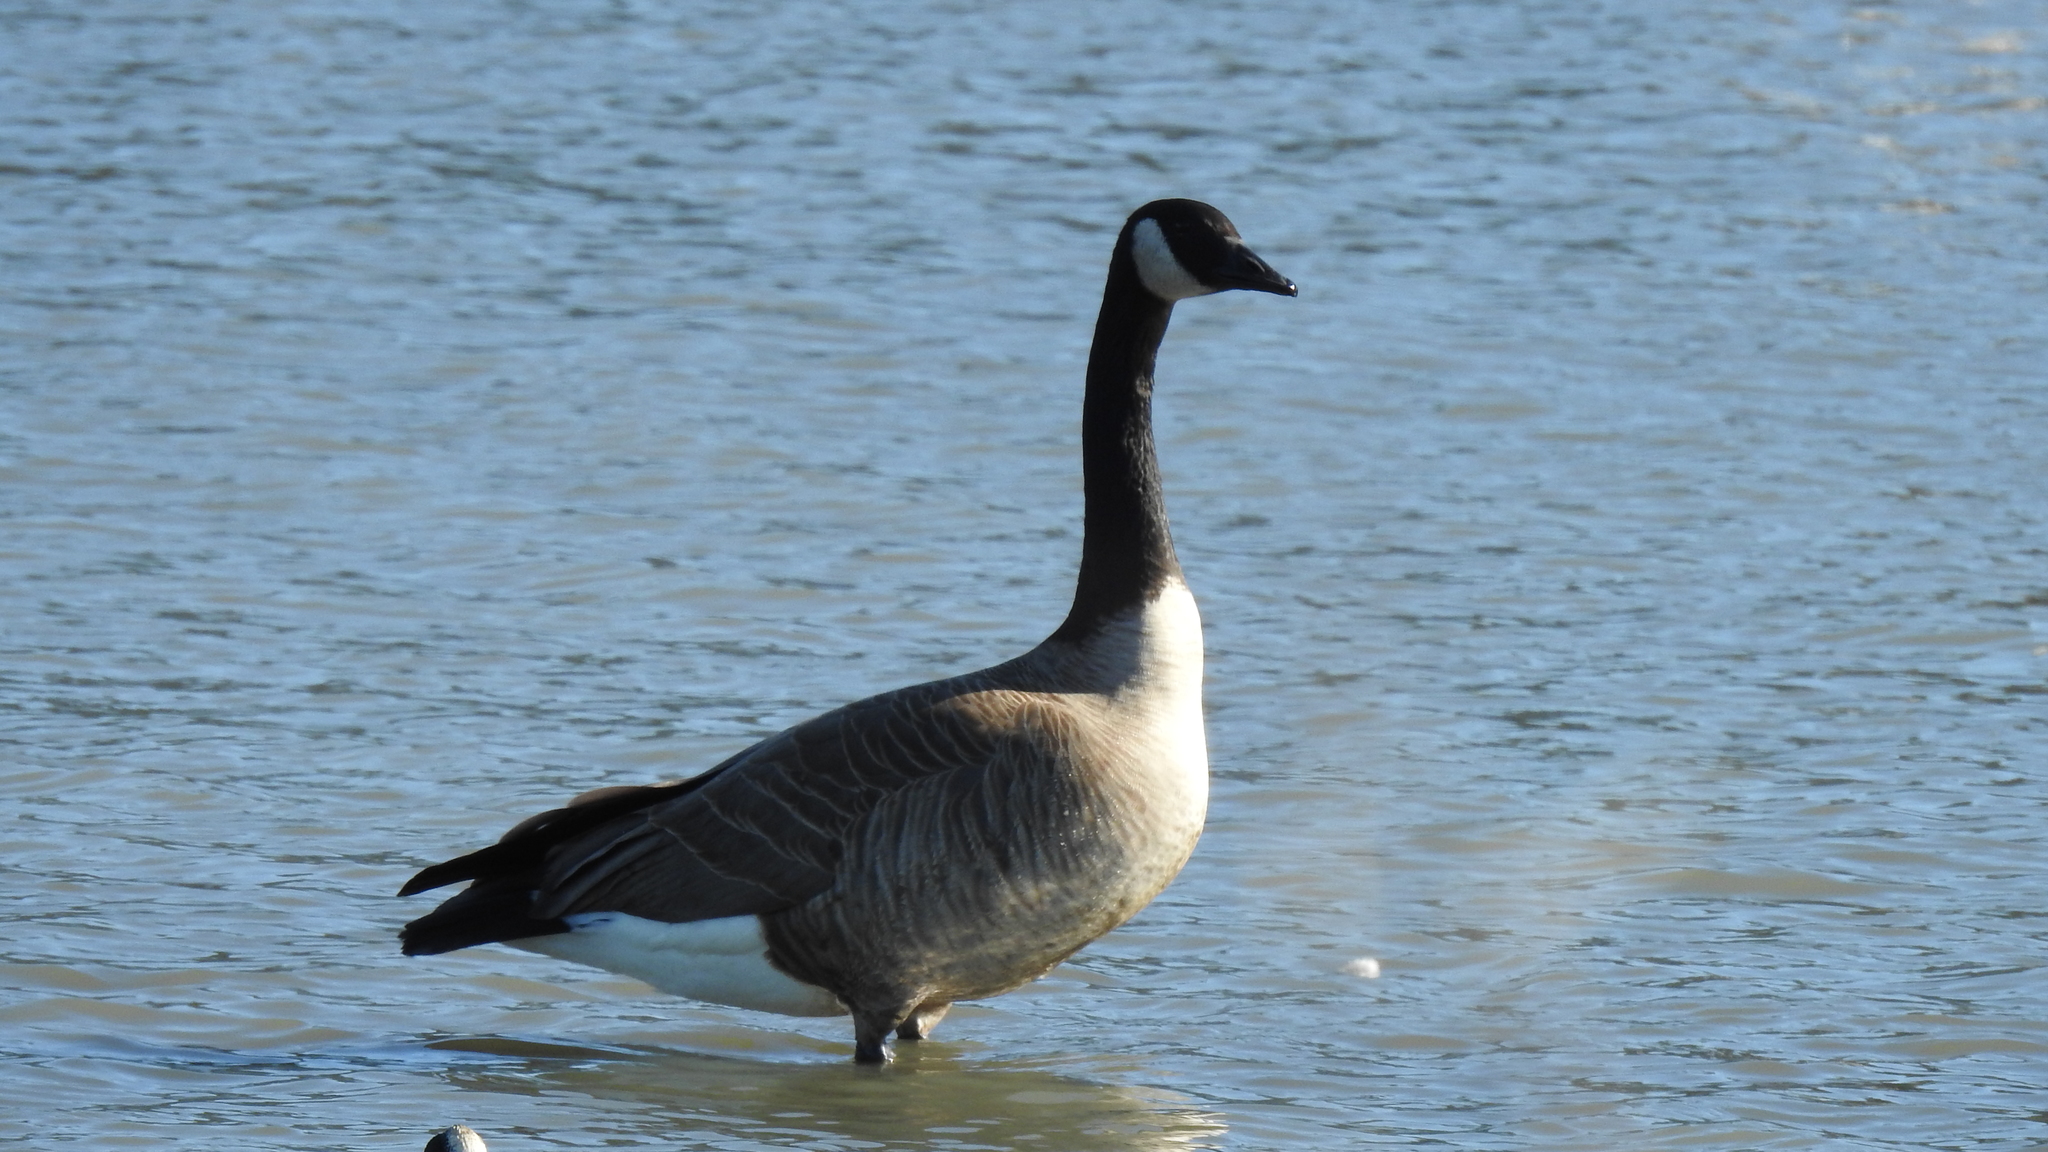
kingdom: Animalia
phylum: Chordata
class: Aves
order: Anseriformes
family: Anatidae
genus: Branta
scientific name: Branta canadensis
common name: Canada goose
